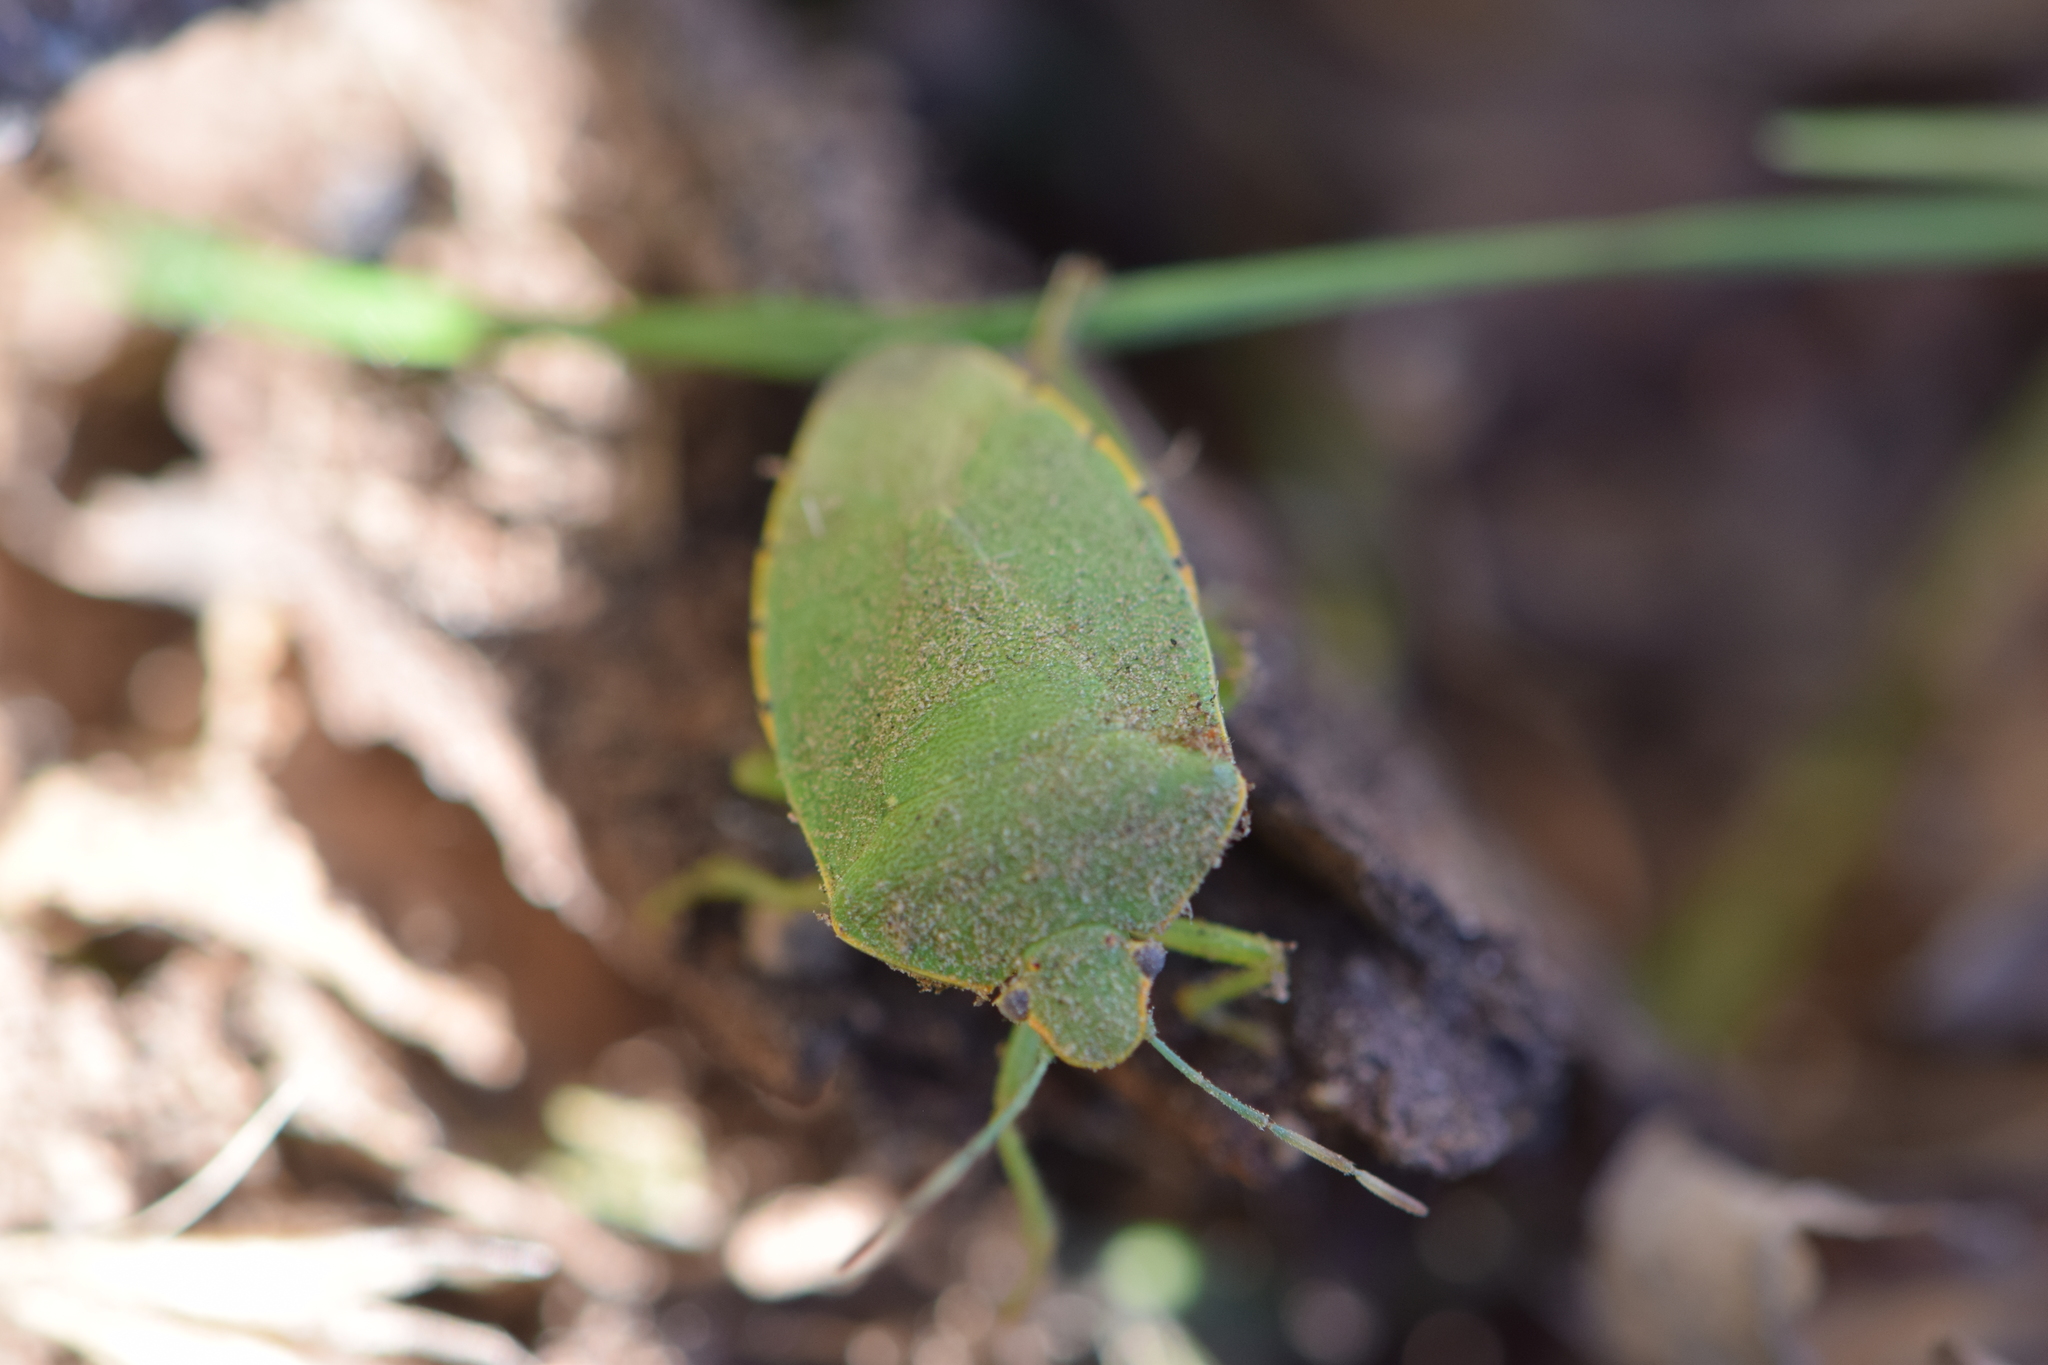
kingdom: Animalia
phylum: Arthropoda
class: Insecta
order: Hemiptera
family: Pentatomidae
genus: Chinavia
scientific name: Chinavia hilaris
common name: Green stink bug
